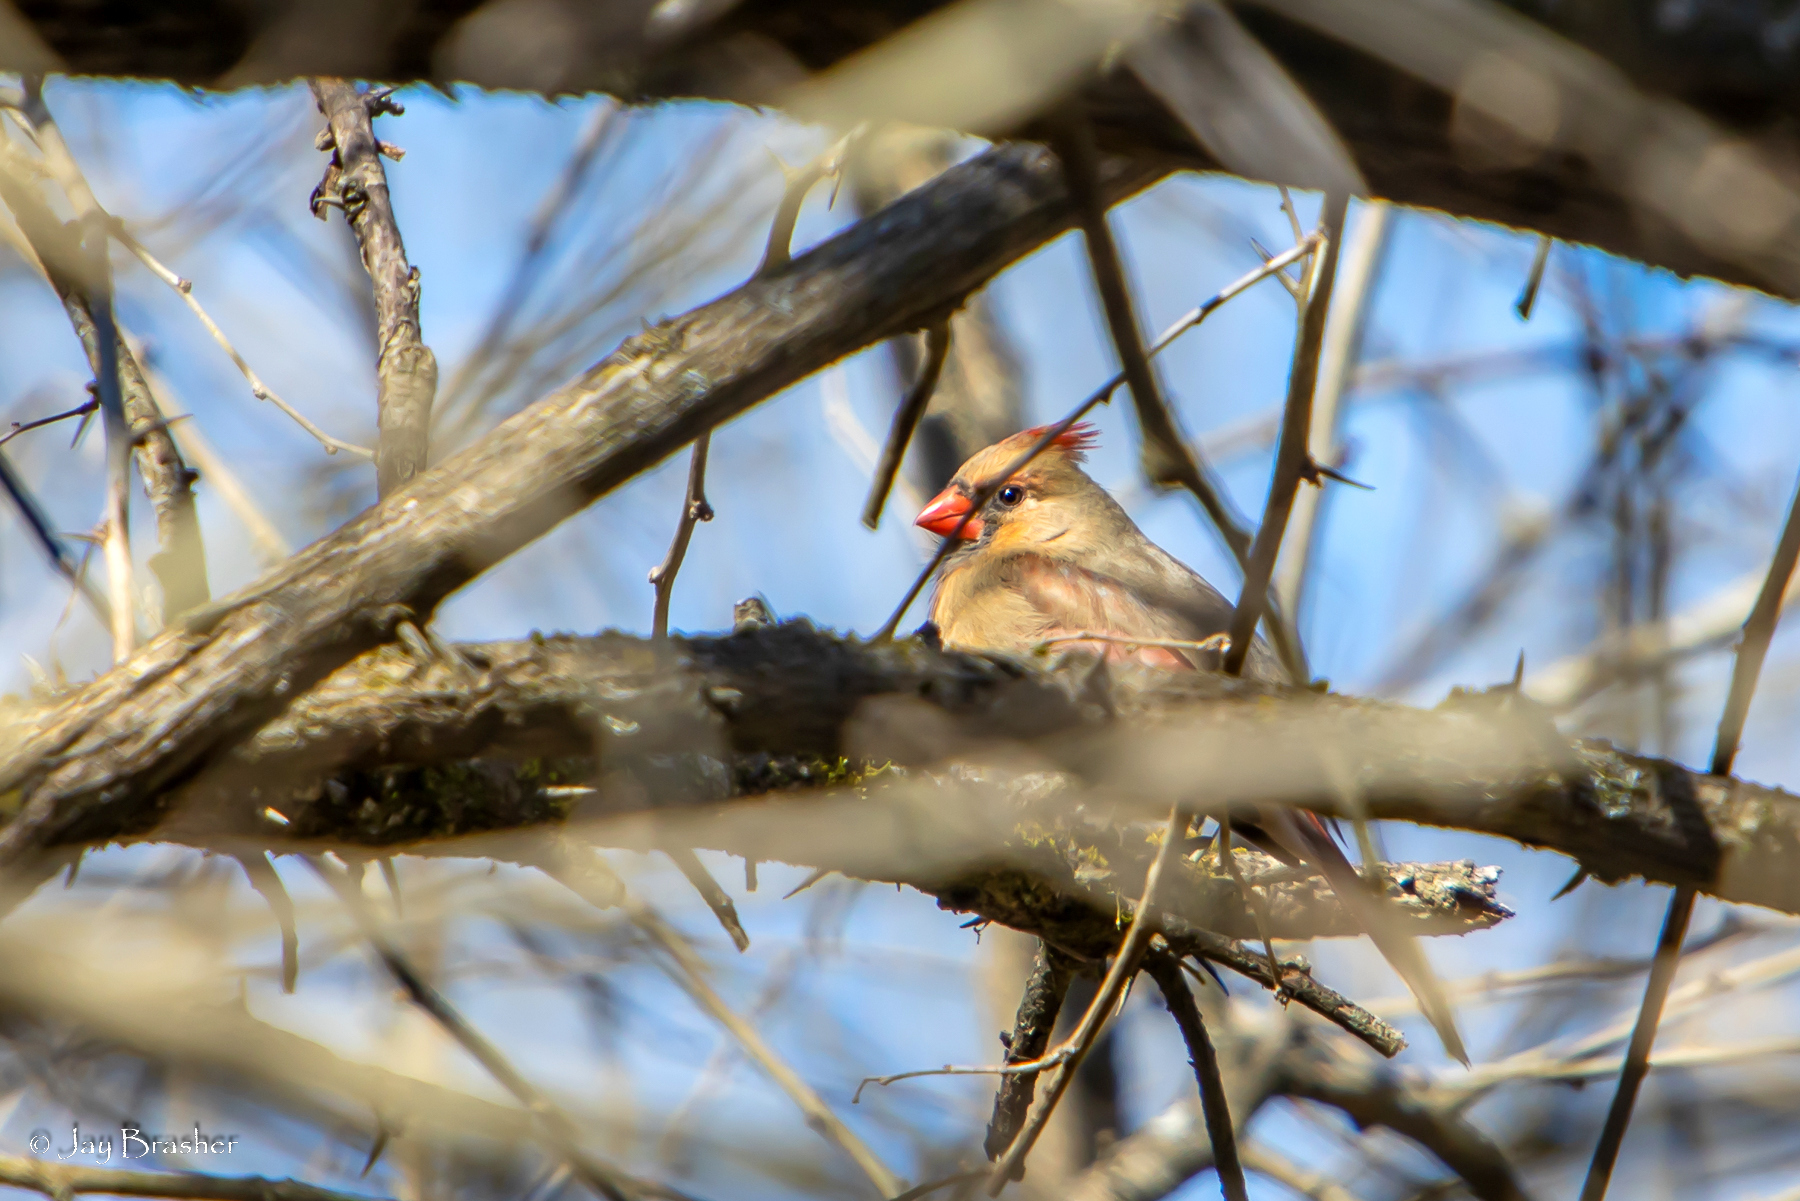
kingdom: Animalia
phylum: Chordata
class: Aves
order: Passeriformes
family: Cardinalidae
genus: Cardinalis
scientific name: Cardinalis cardinalis
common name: Northern cardinal
